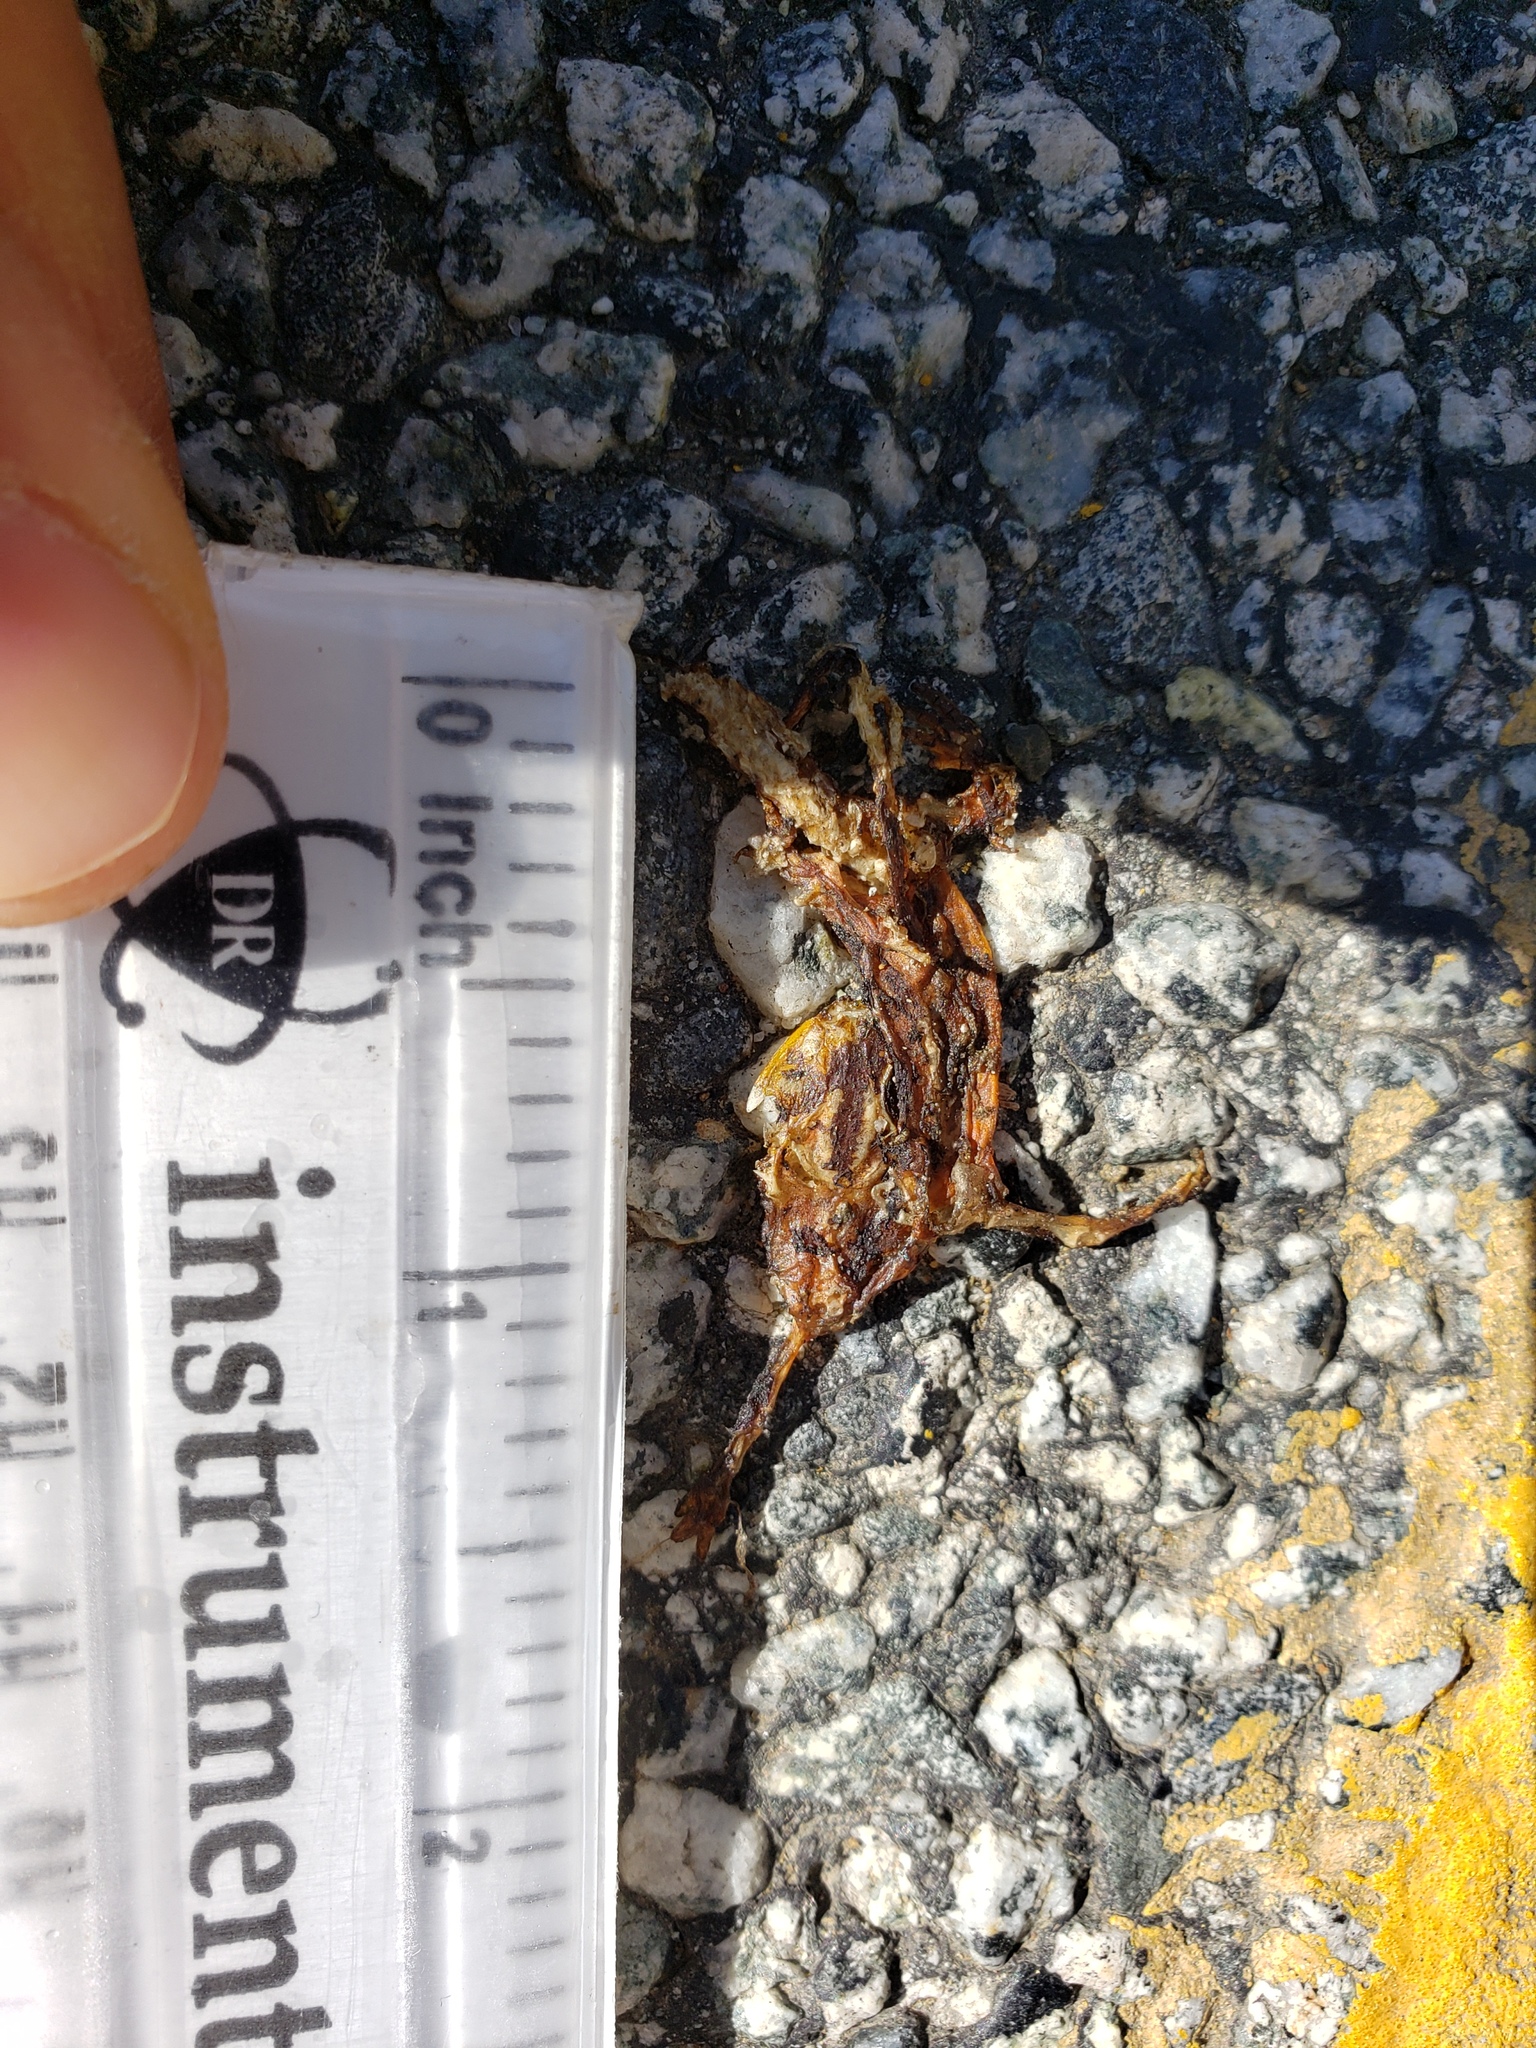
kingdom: Animalia
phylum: Chordata
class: Amphibia
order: Caudata
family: Salamandridae
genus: Taricha
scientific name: Taricha
